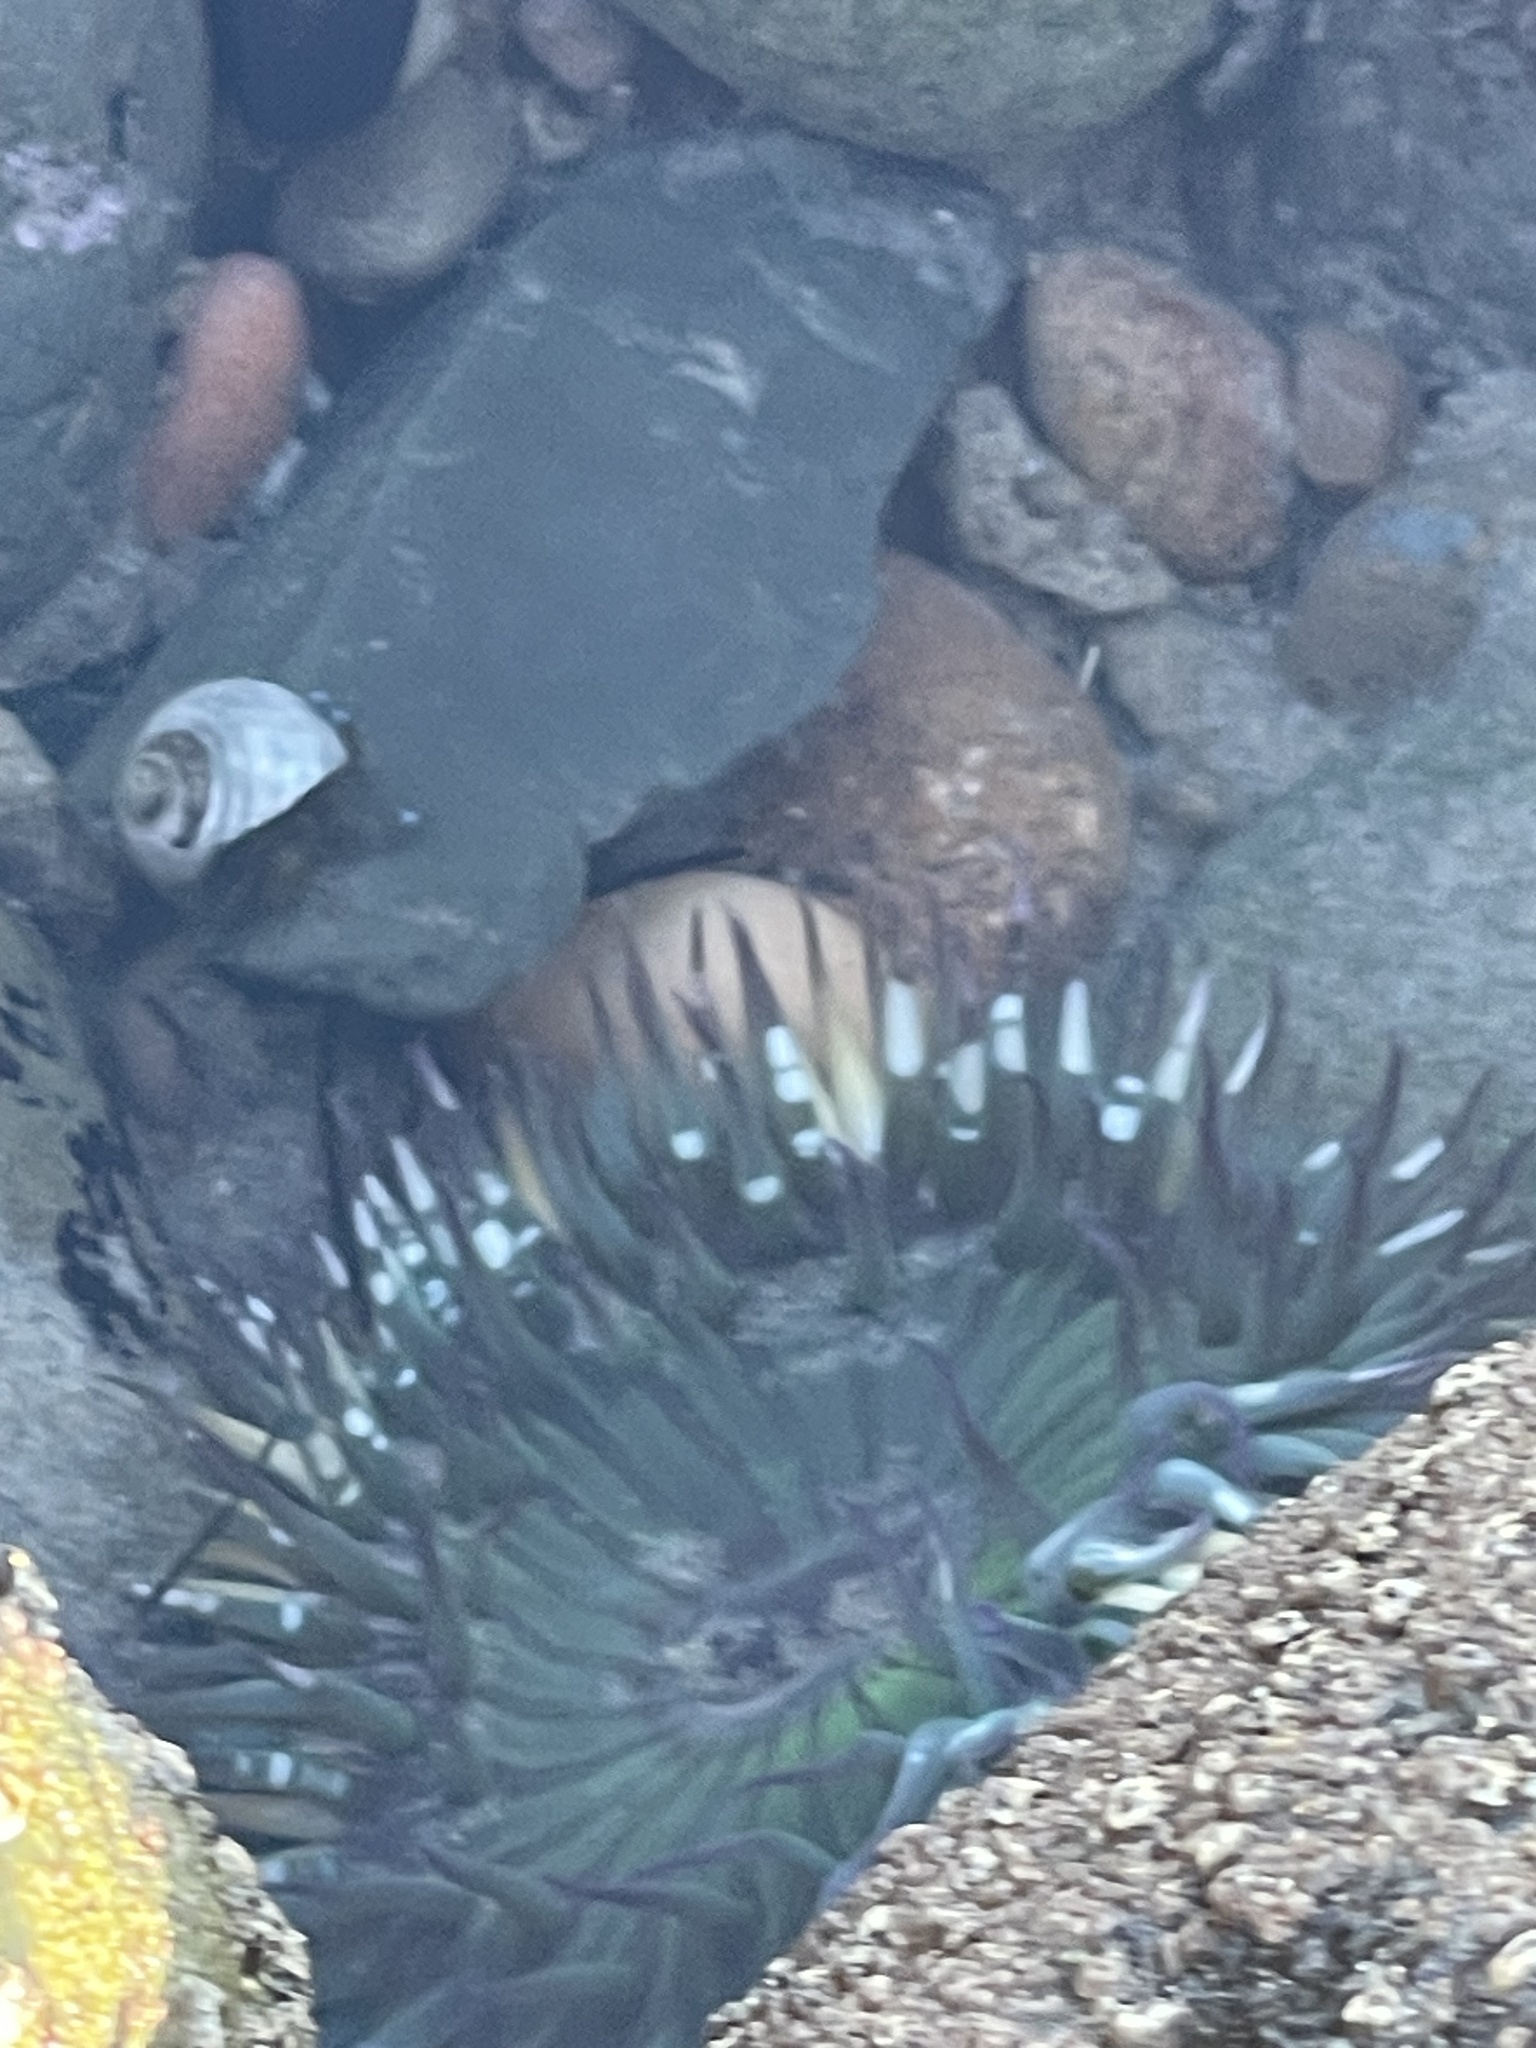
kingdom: Animalia
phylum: Cnidaria
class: Anthozoa
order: Actiniaria
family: Actiniidae
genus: Anthopleura
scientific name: Anthopleura sola
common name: Sun anemone
